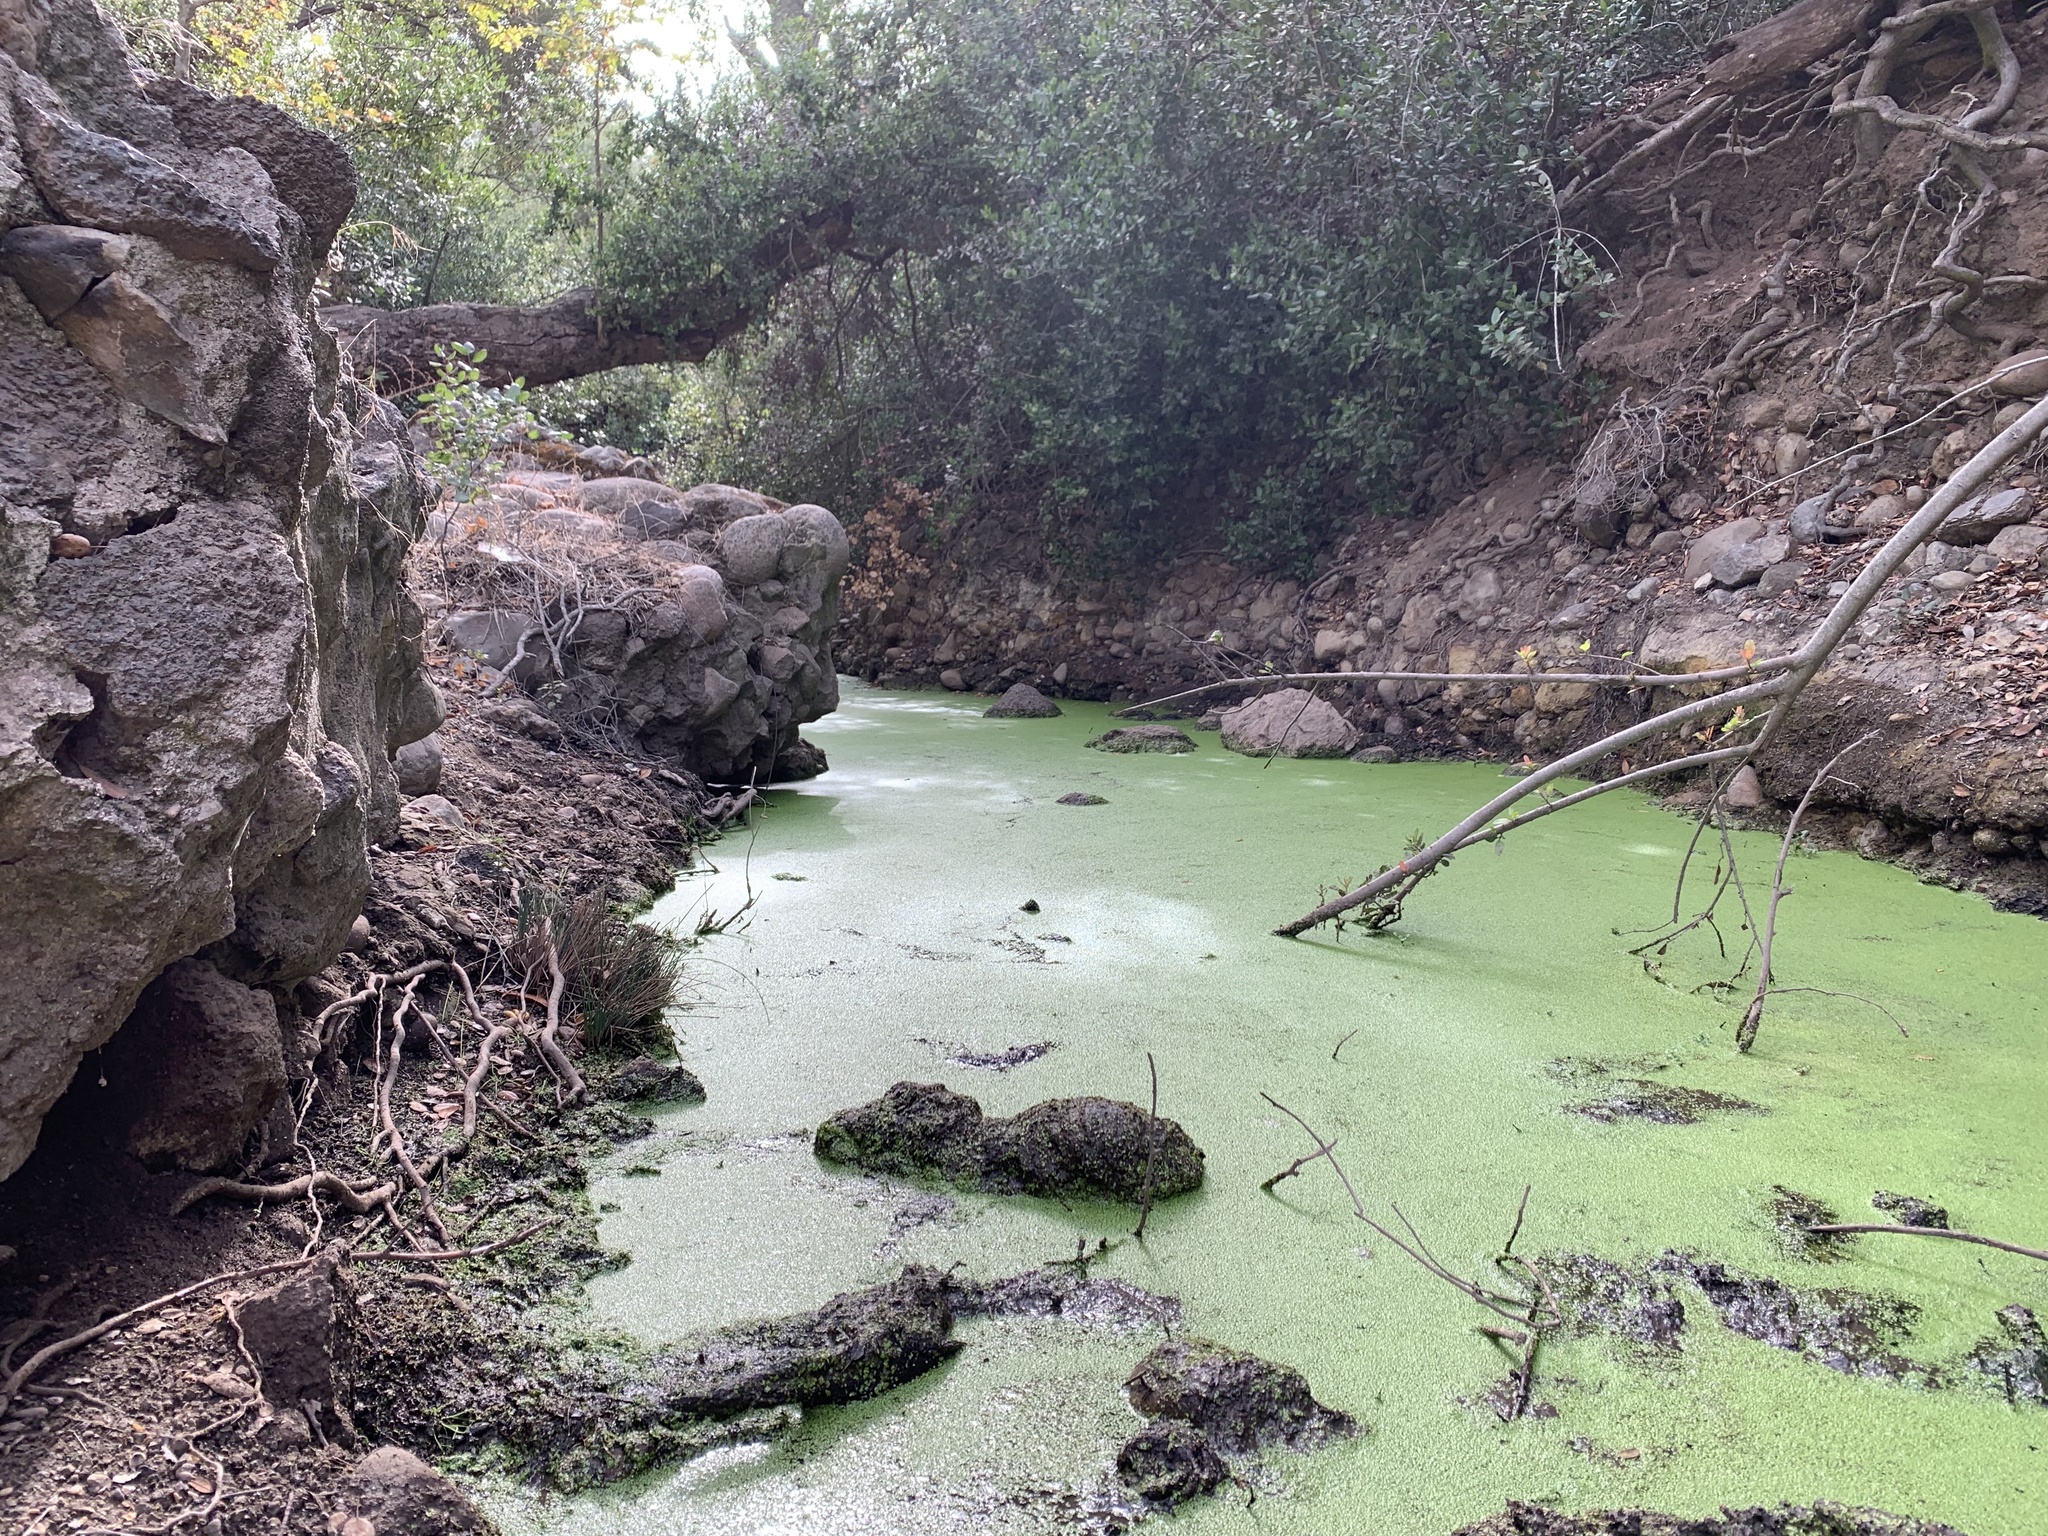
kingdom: Plantae
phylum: Tracheophyta
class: Liliopsida
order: Alismatales
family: Araceae
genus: Lemna
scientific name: Lemna minor
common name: Common duckweed
